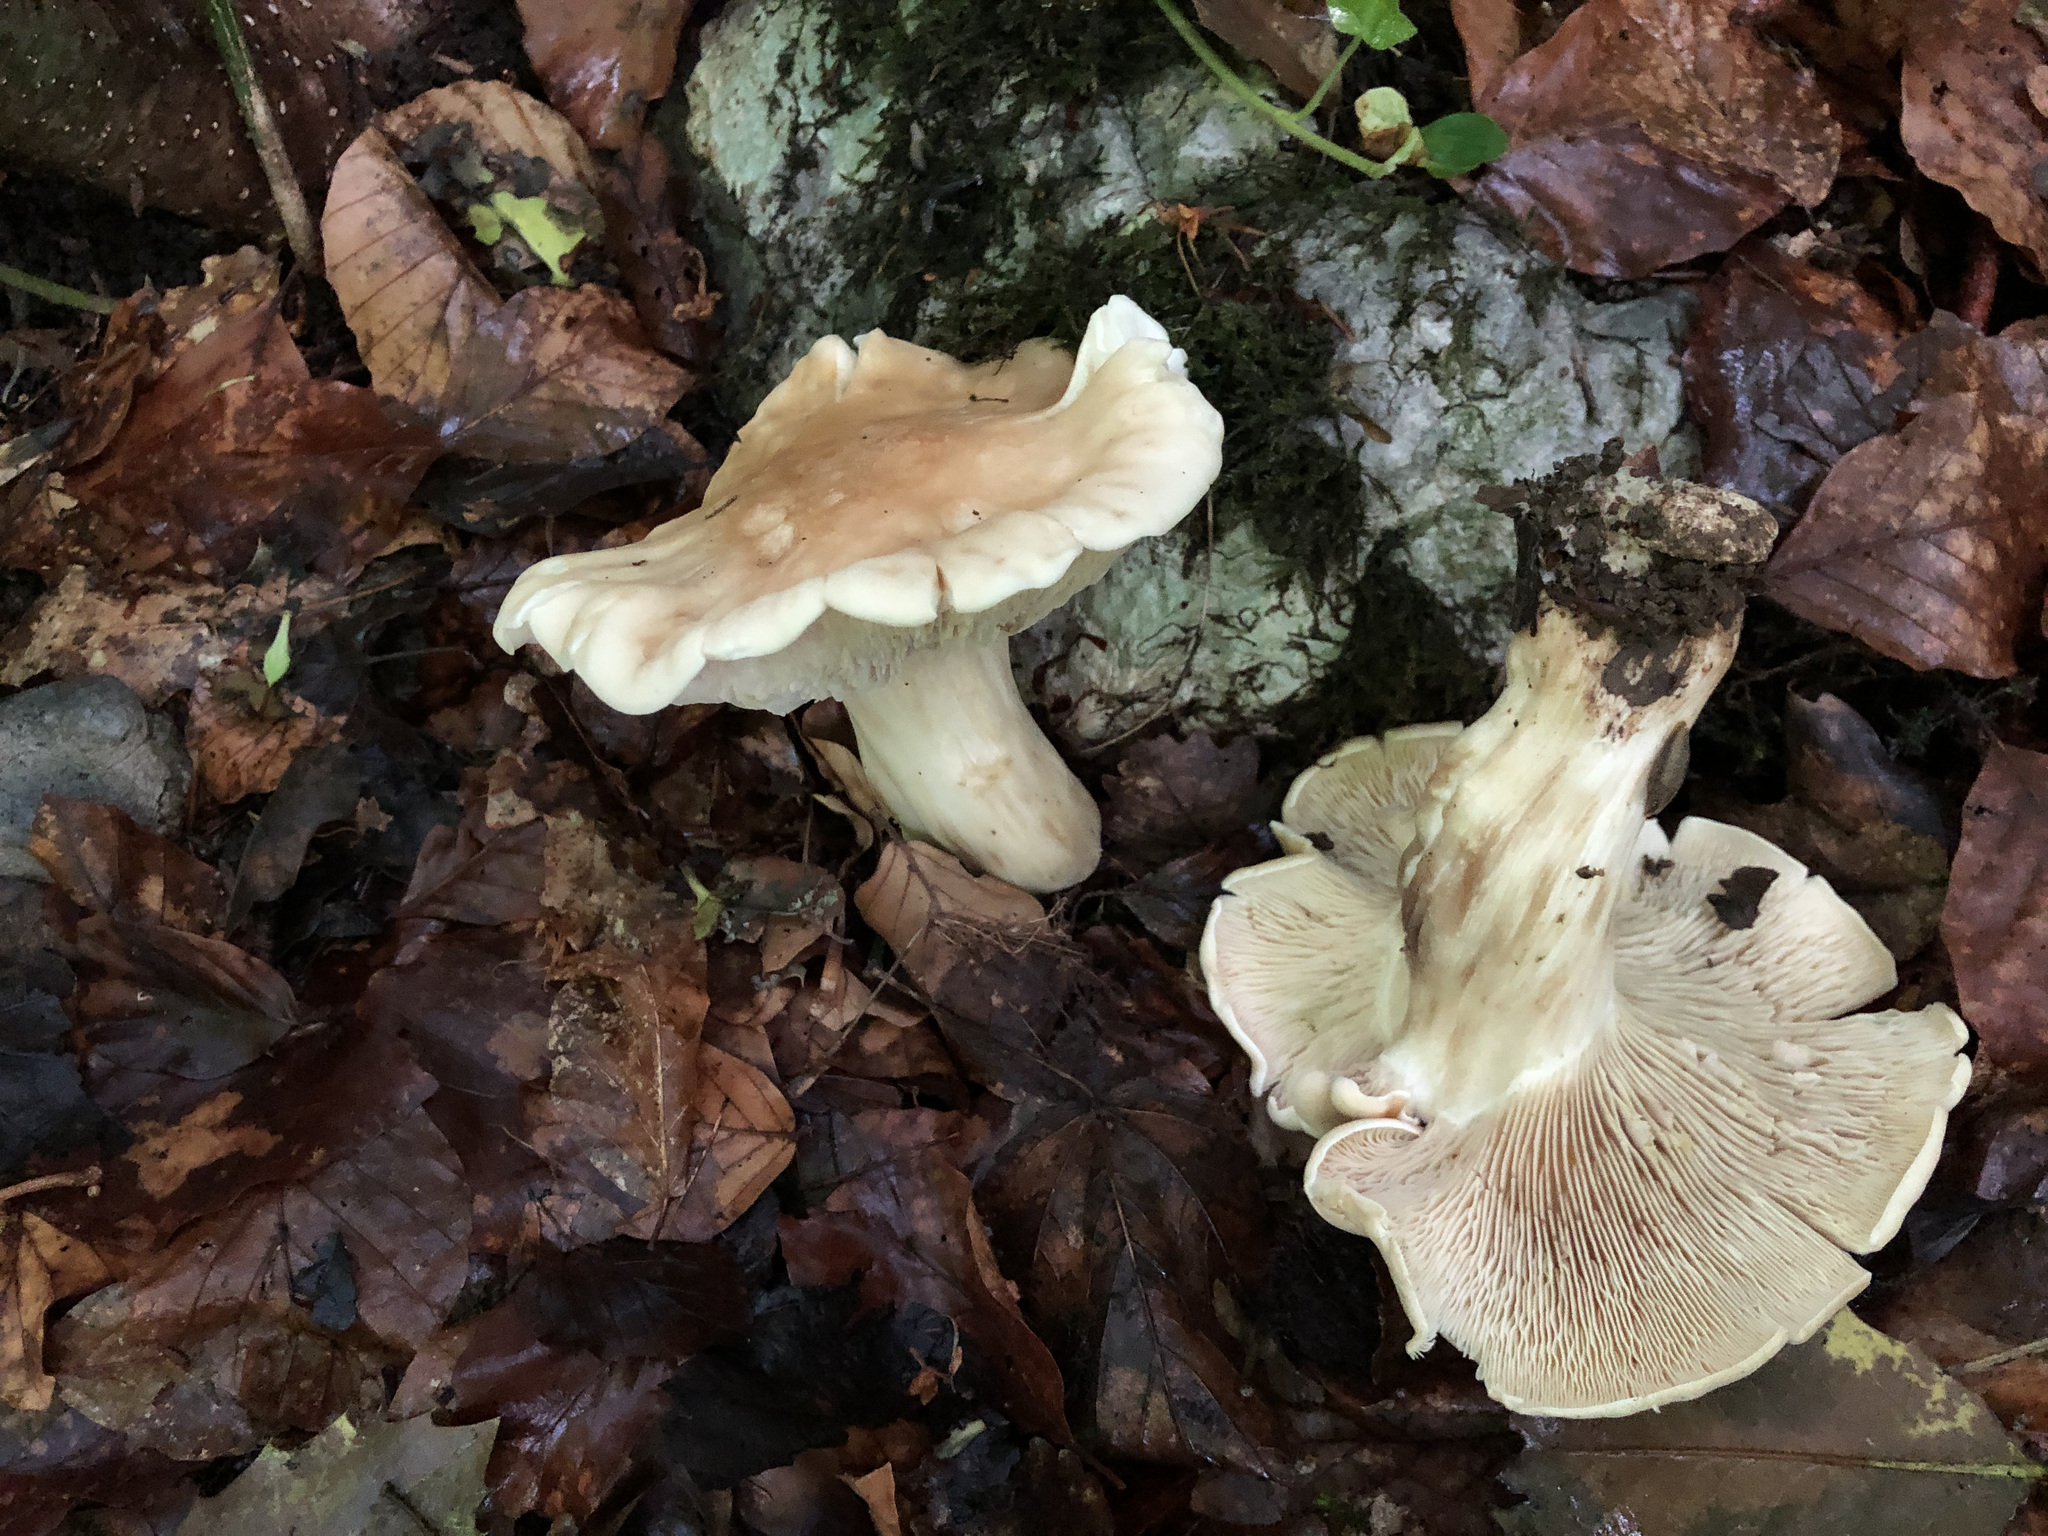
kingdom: Fungi
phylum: Basidiomycota
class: Agaricomycetes
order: Agaricales
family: Lyophyllaceae
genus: Calocybe
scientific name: Calocybe gambosa
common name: St. george's mushroom
